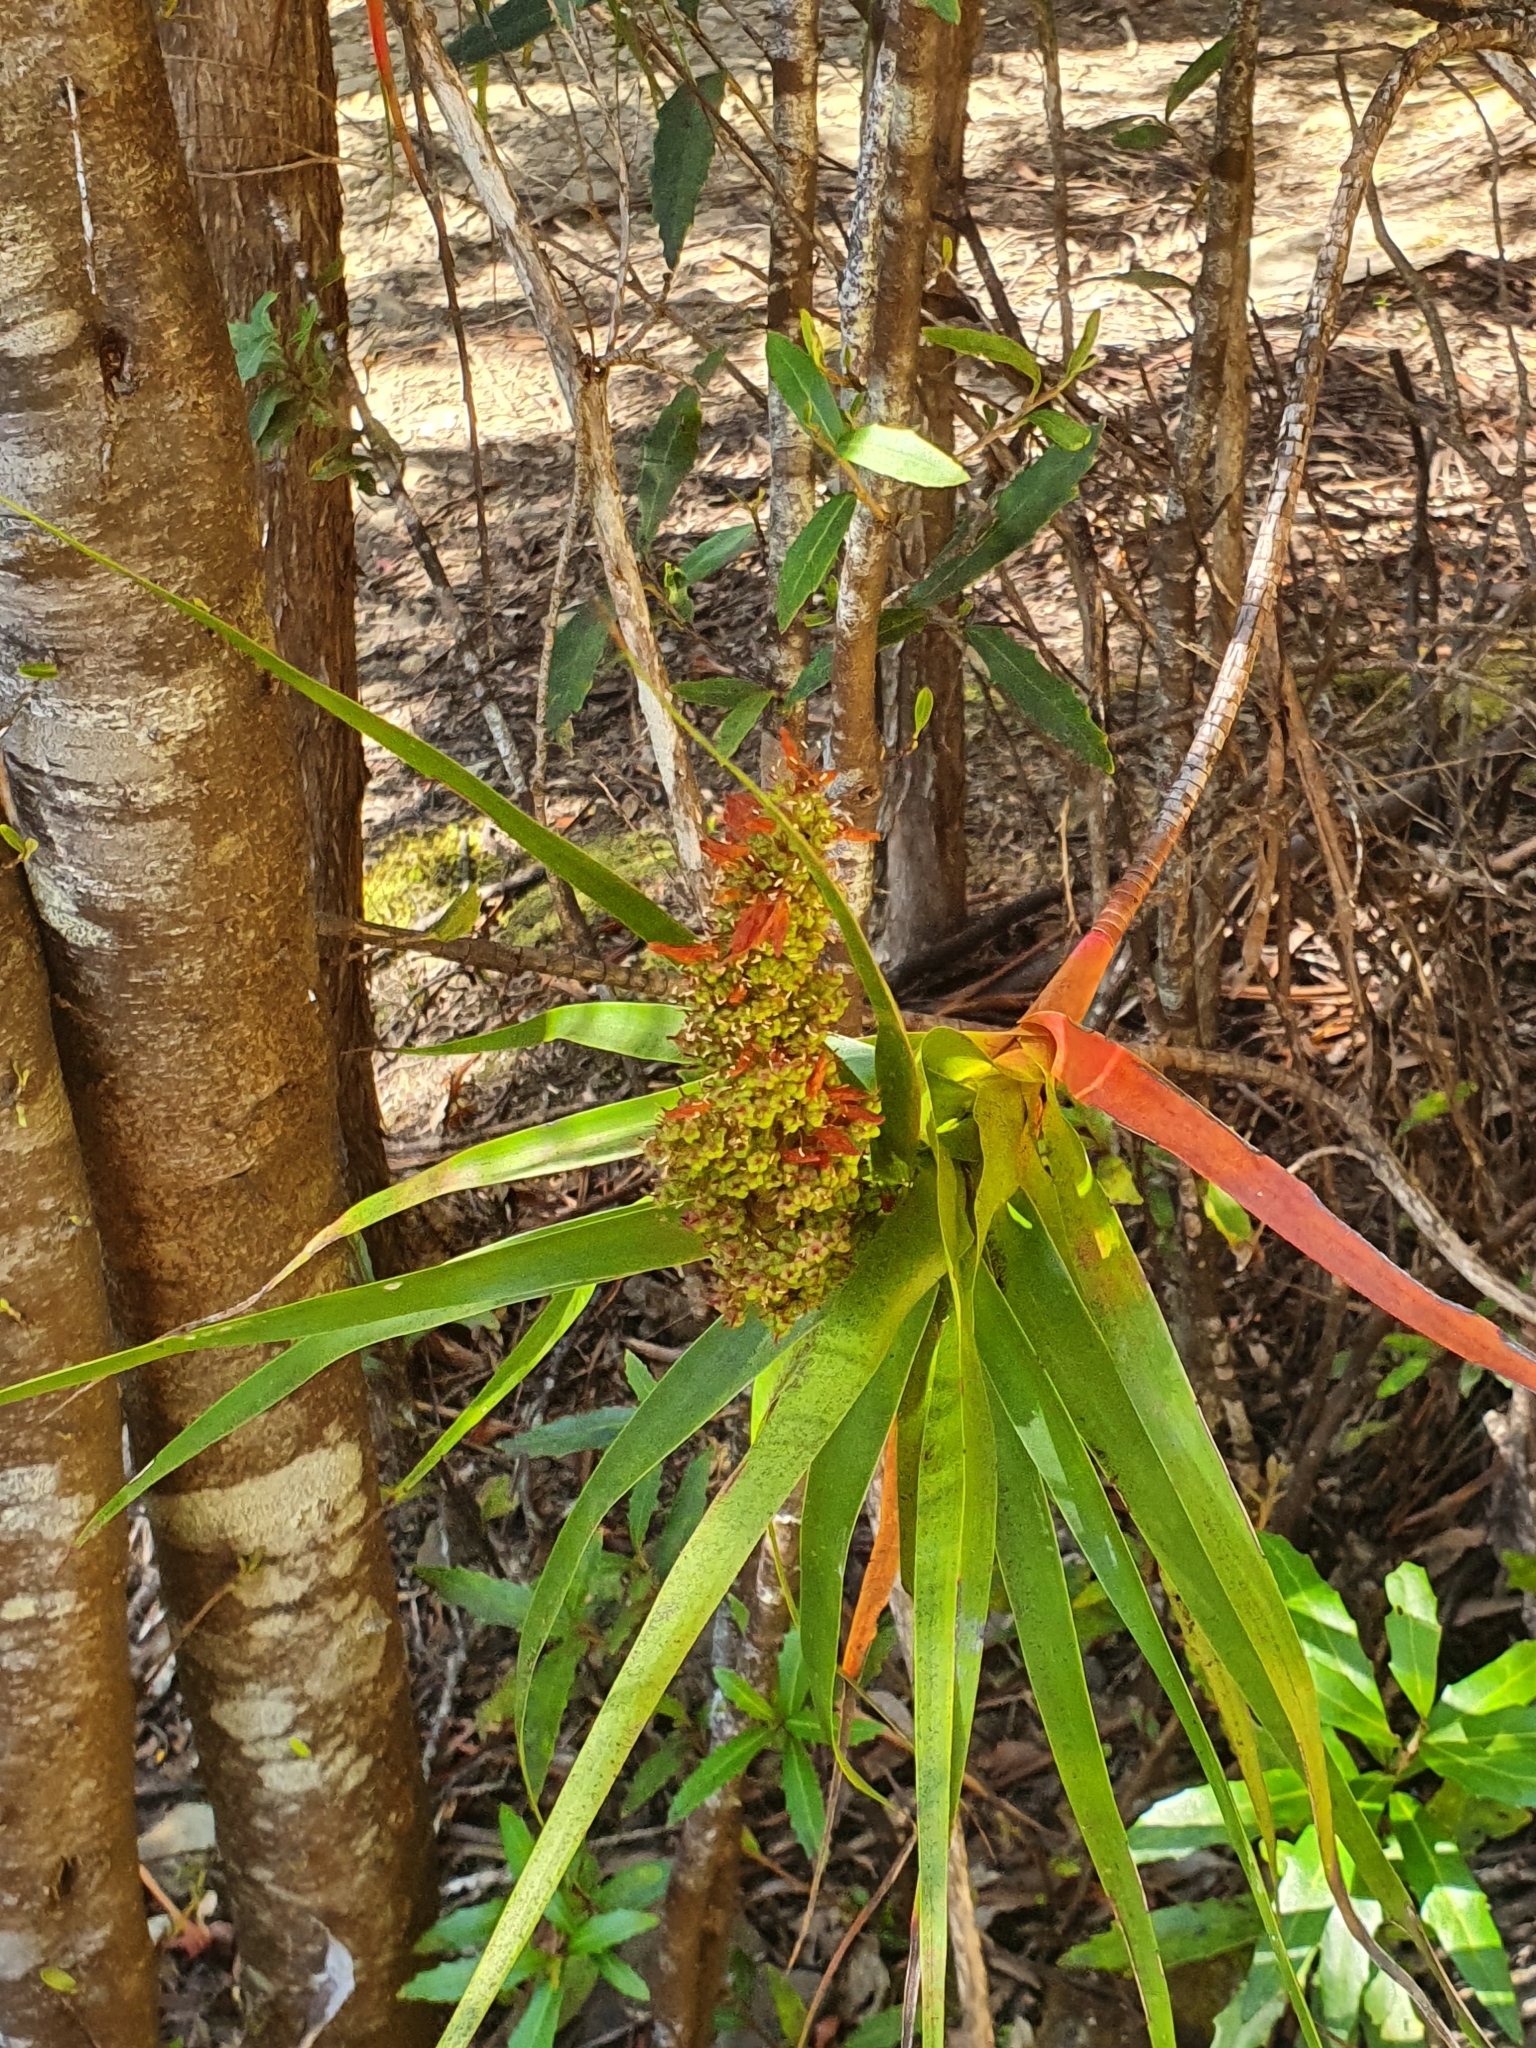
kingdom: Plantae
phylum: Tracheophyta
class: Magnoliopsida
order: Ericales
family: Ericaceae
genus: Dracophyllum
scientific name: Dracophyllum desgrazii
